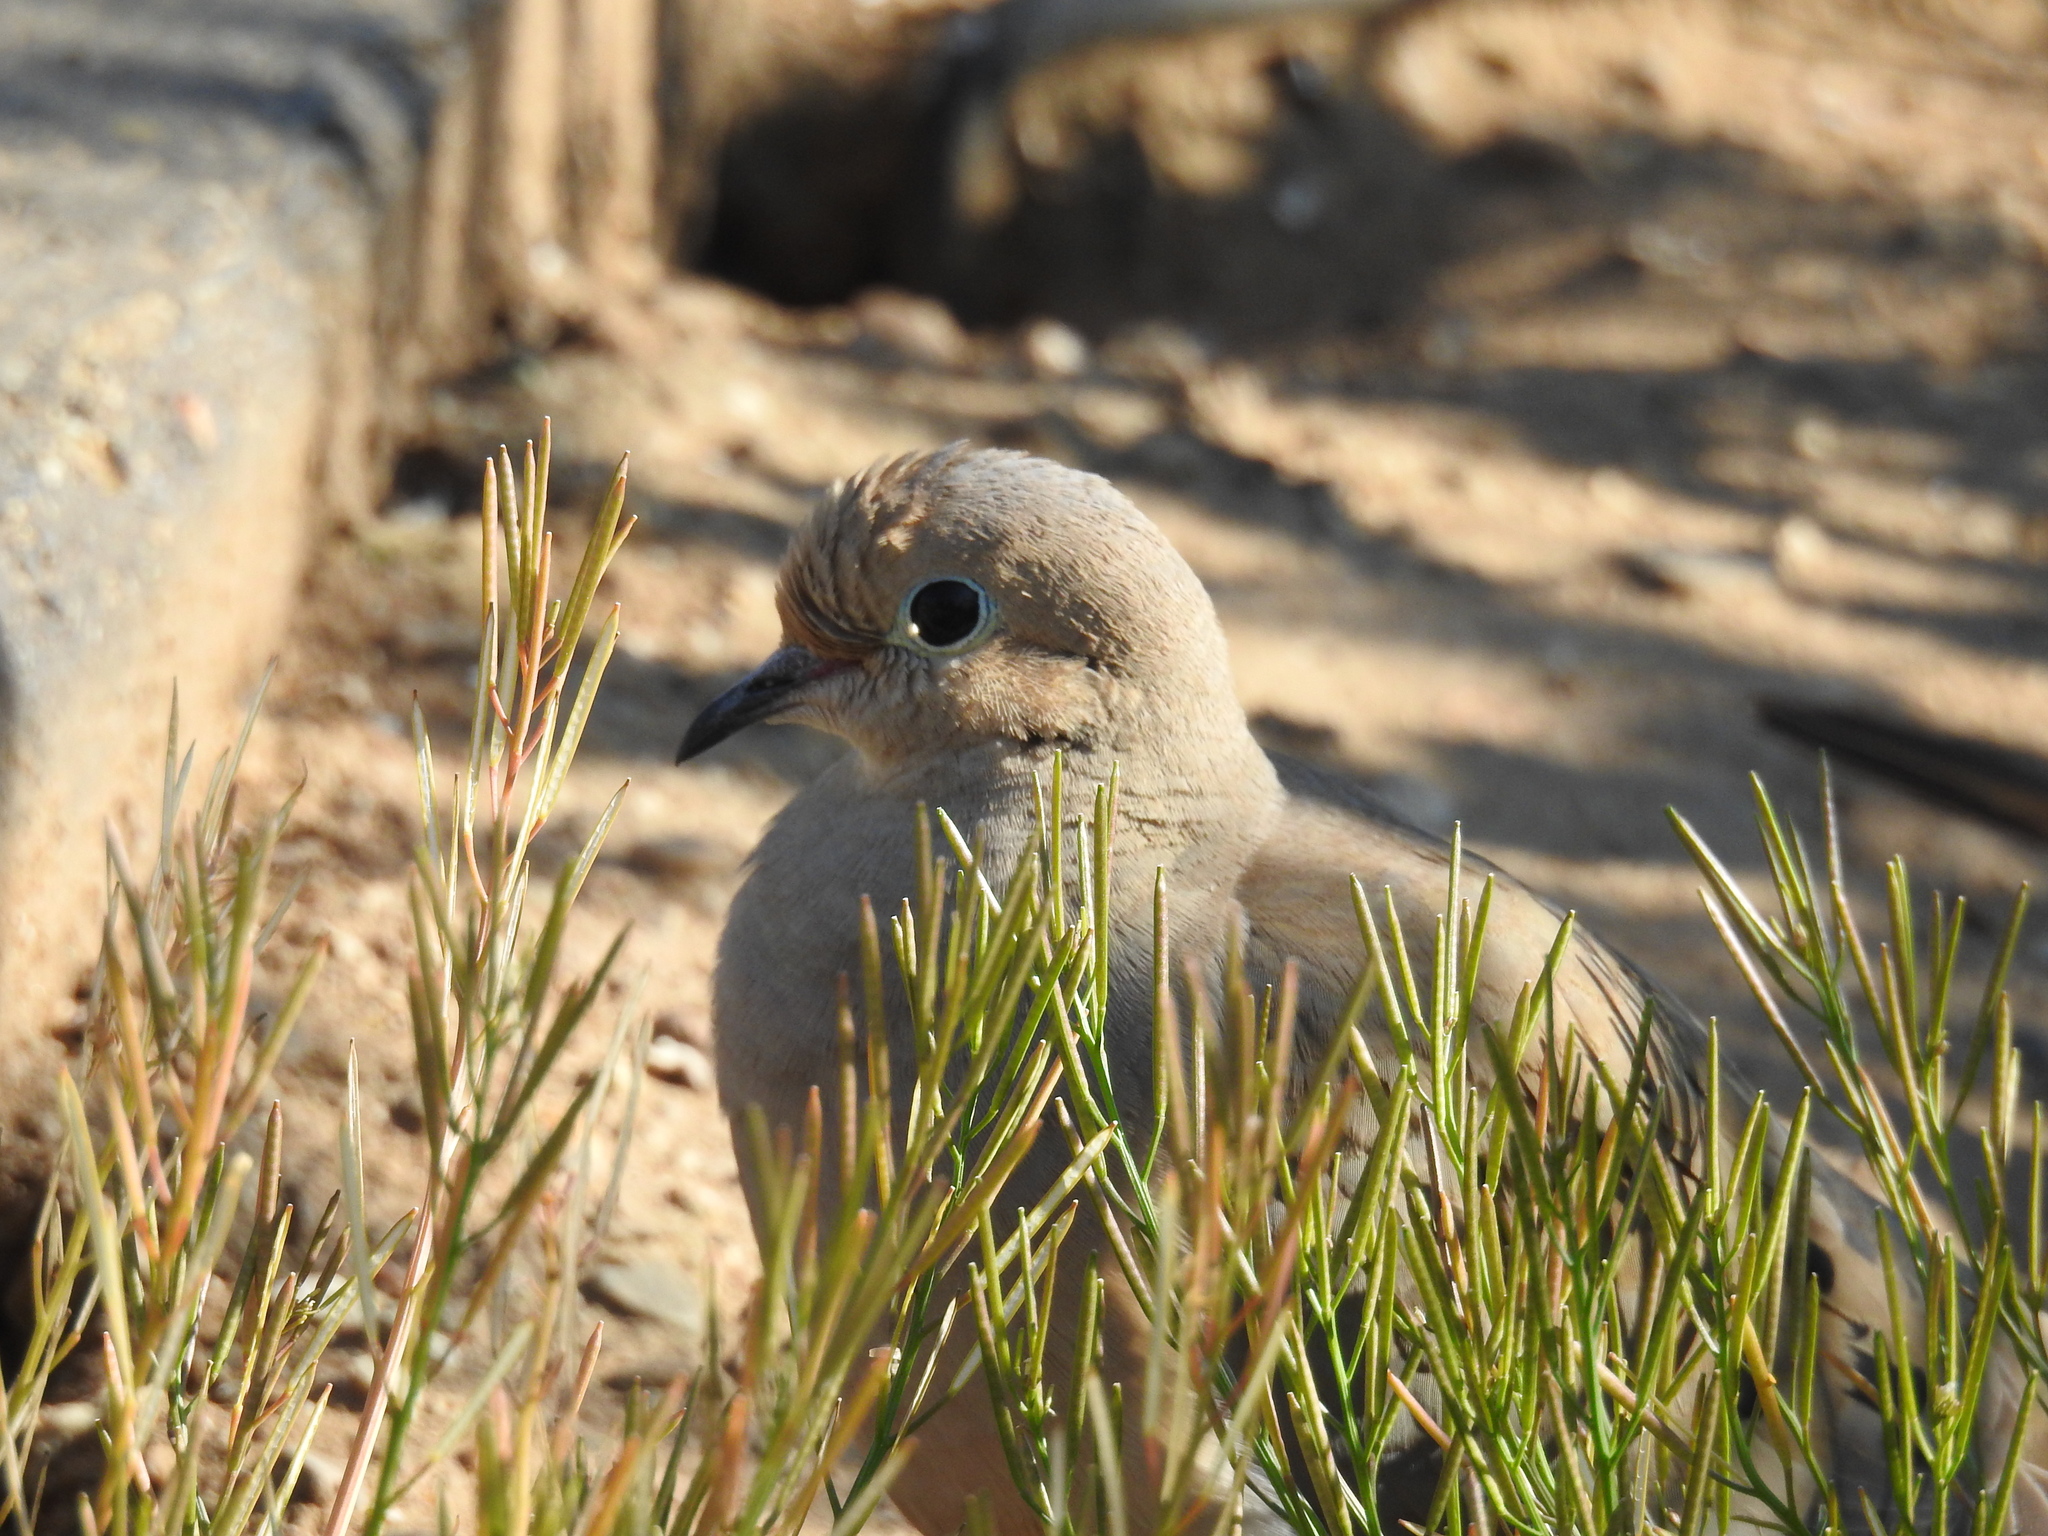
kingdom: Animalia
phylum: Chordata
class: Aves
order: Columbiformes
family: Columbidae
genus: Zenaida
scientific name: Zenaida macroura
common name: Mourning dove
